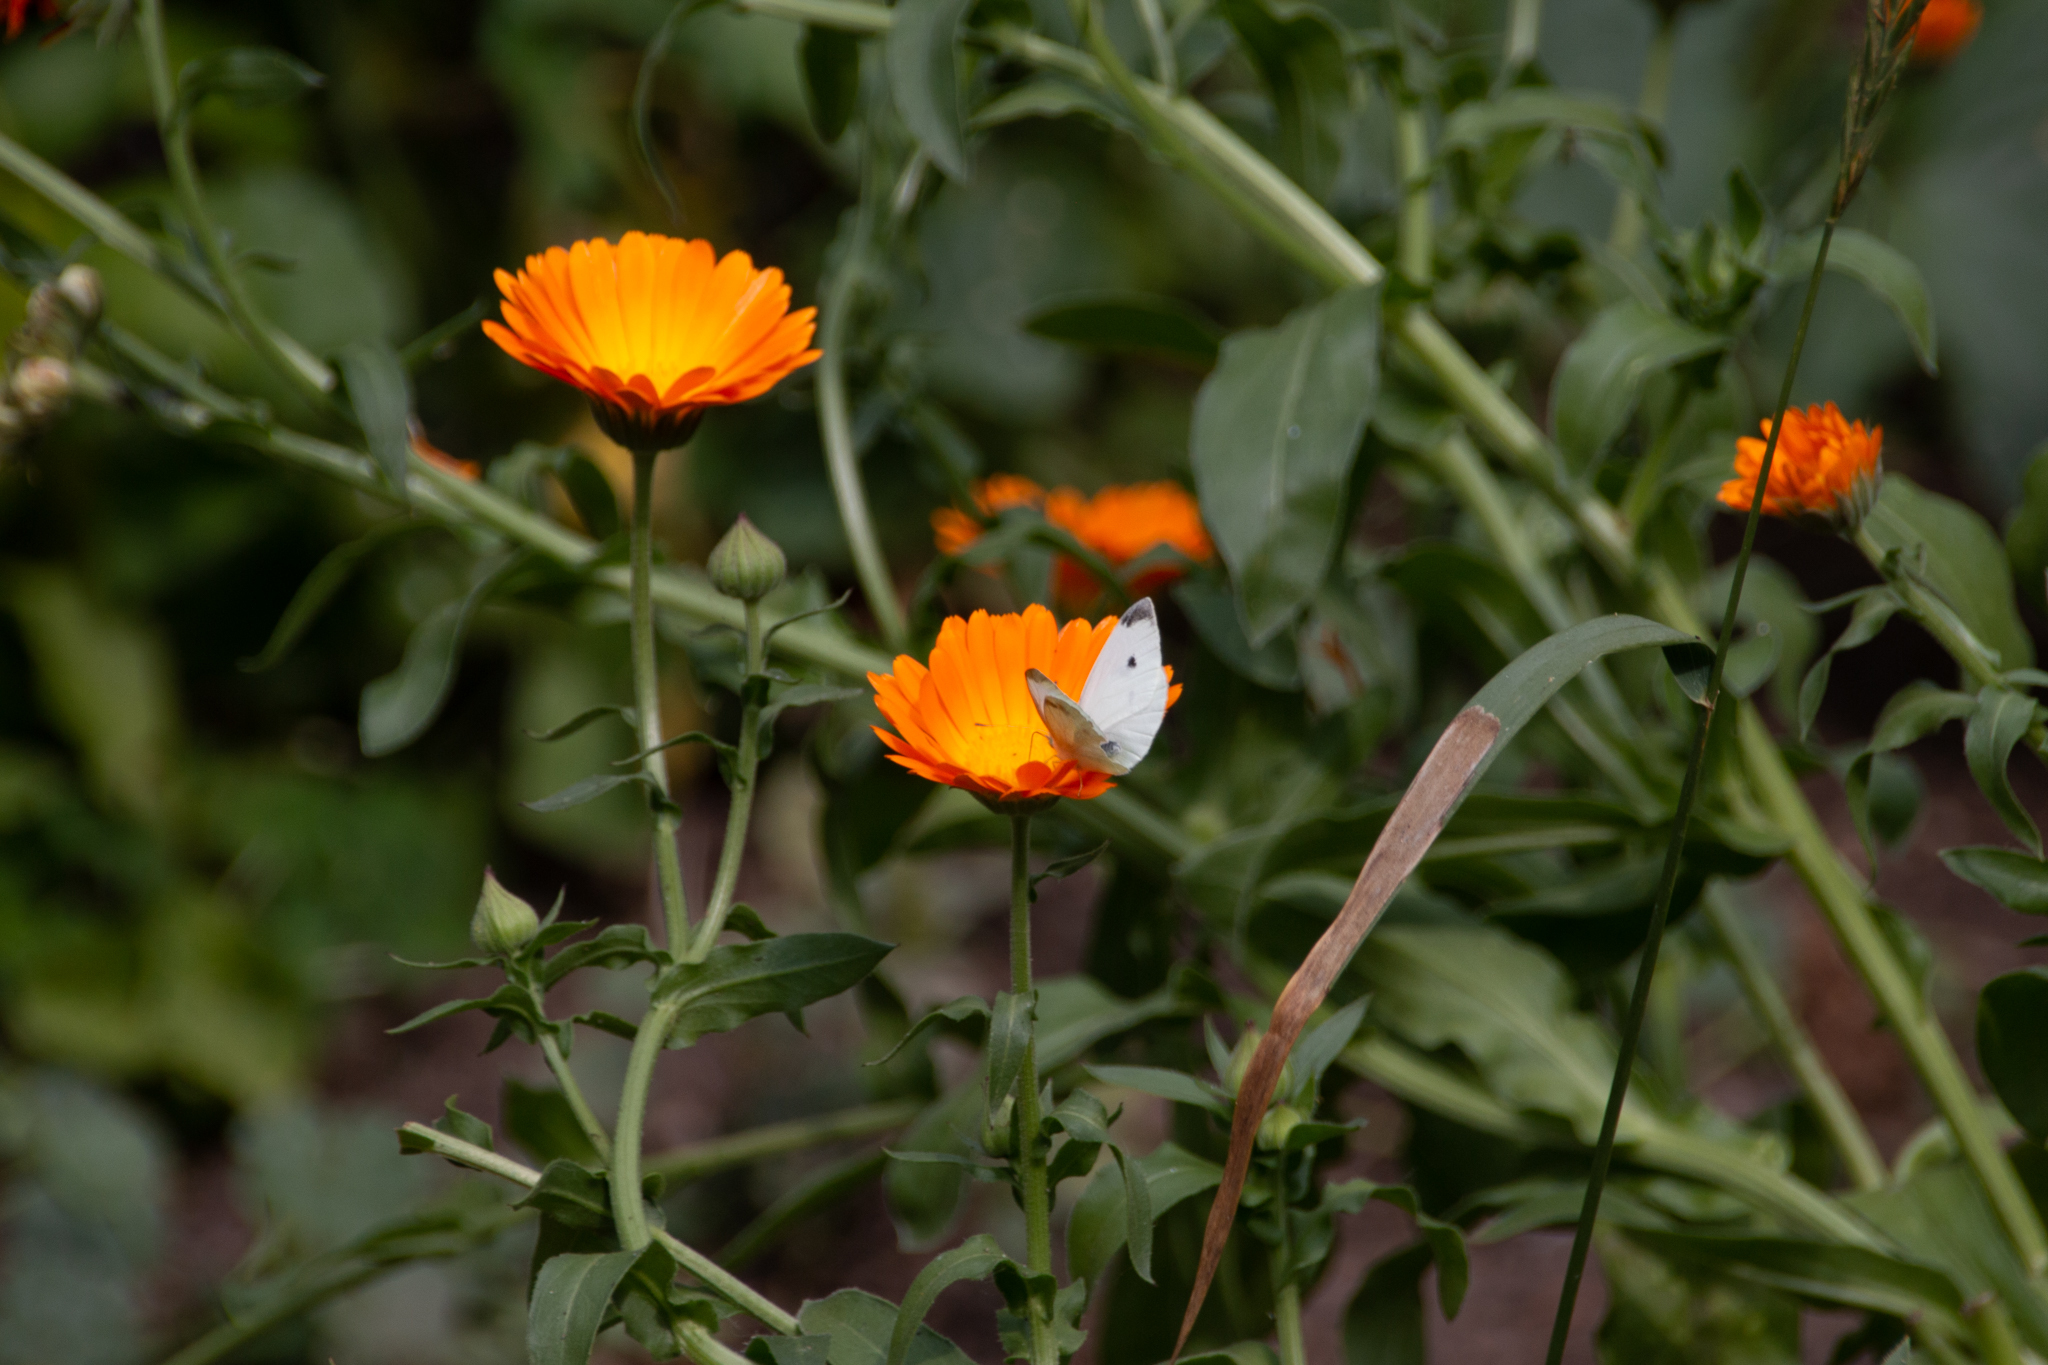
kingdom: Animalia
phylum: Arthropoda
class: Insecta
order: Lepidoptera
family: Pieridae
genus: Pieris
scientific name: Pieris rapae
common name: Small white
